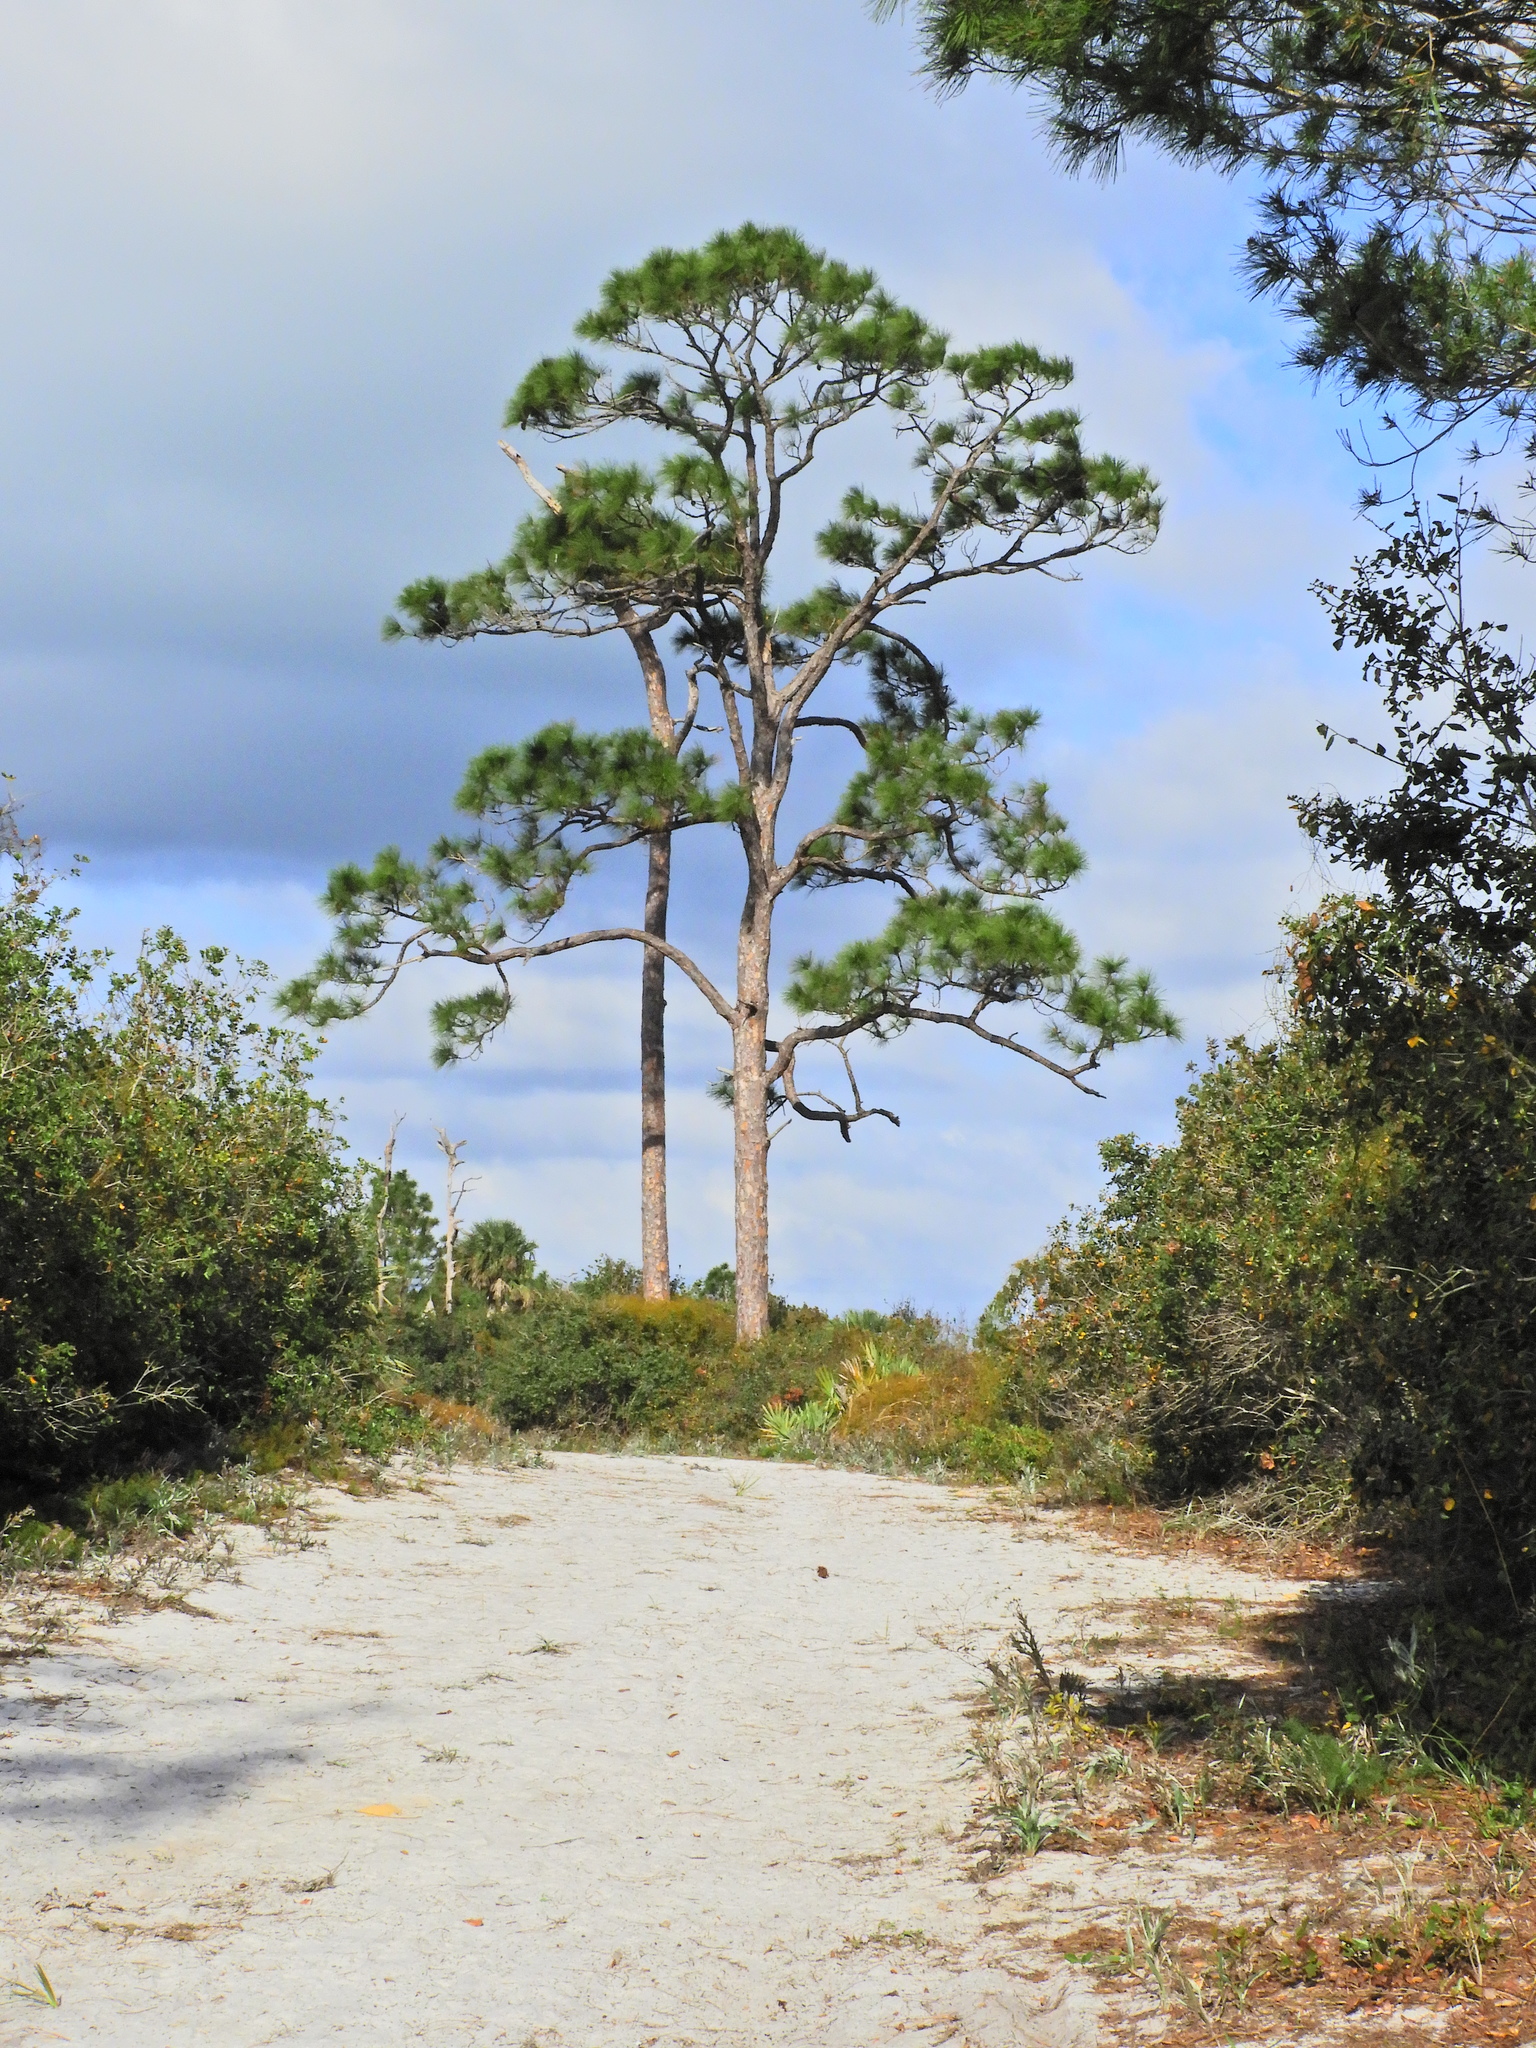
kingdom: Plantae
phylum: Tracheophyta
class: Pinopsida
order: Pinales
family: Pinaceae
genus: Pinus
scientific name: Pinus elliottii
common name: Slash pine
